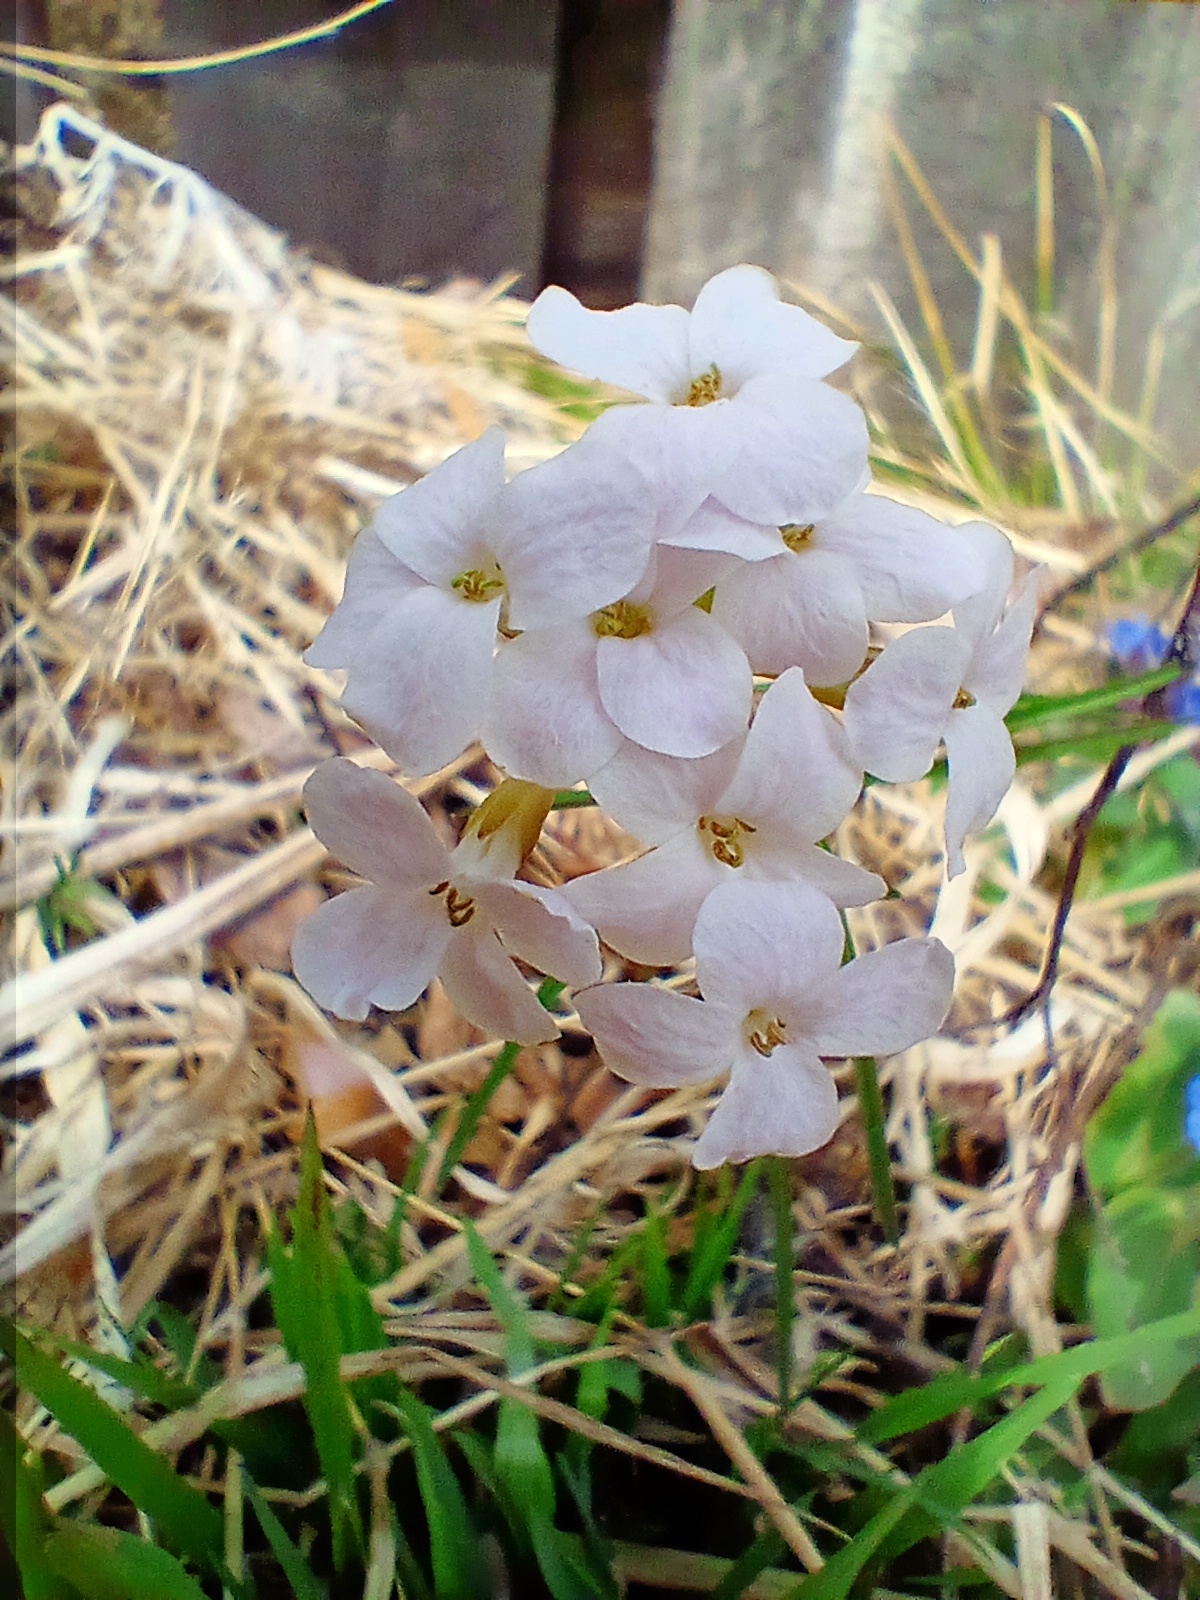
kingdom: Plantae
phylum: Tracheophyta
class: Magnoliopsida
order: Brassicales
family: Brassicaceae
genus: Cardamine
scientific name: Cardamine trifida
